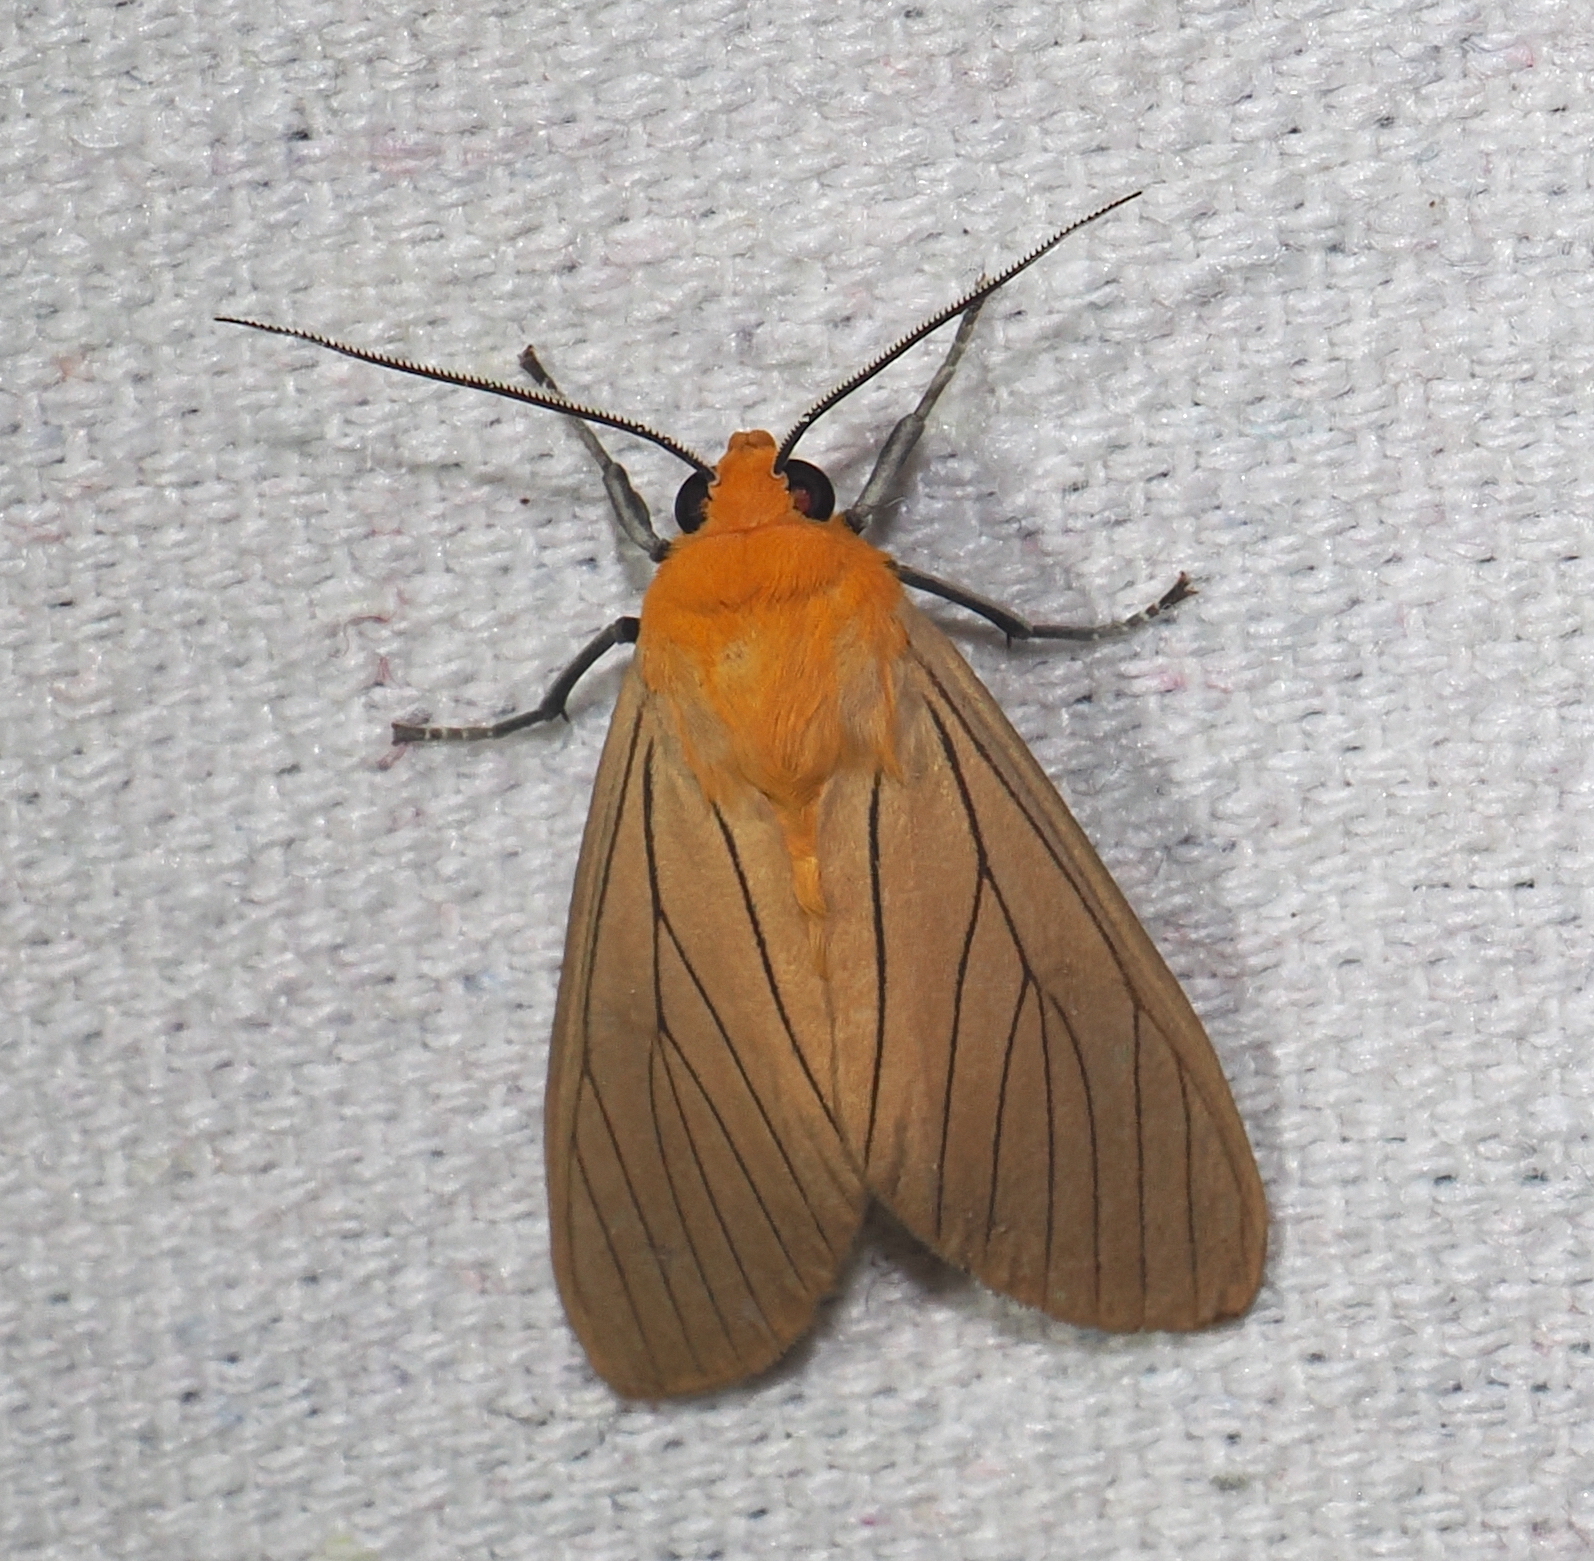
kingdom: Animalia
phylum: Arthropoda
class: Insecta
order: Lepidoptera
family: Erebidae
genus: Melese
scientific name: Melese
